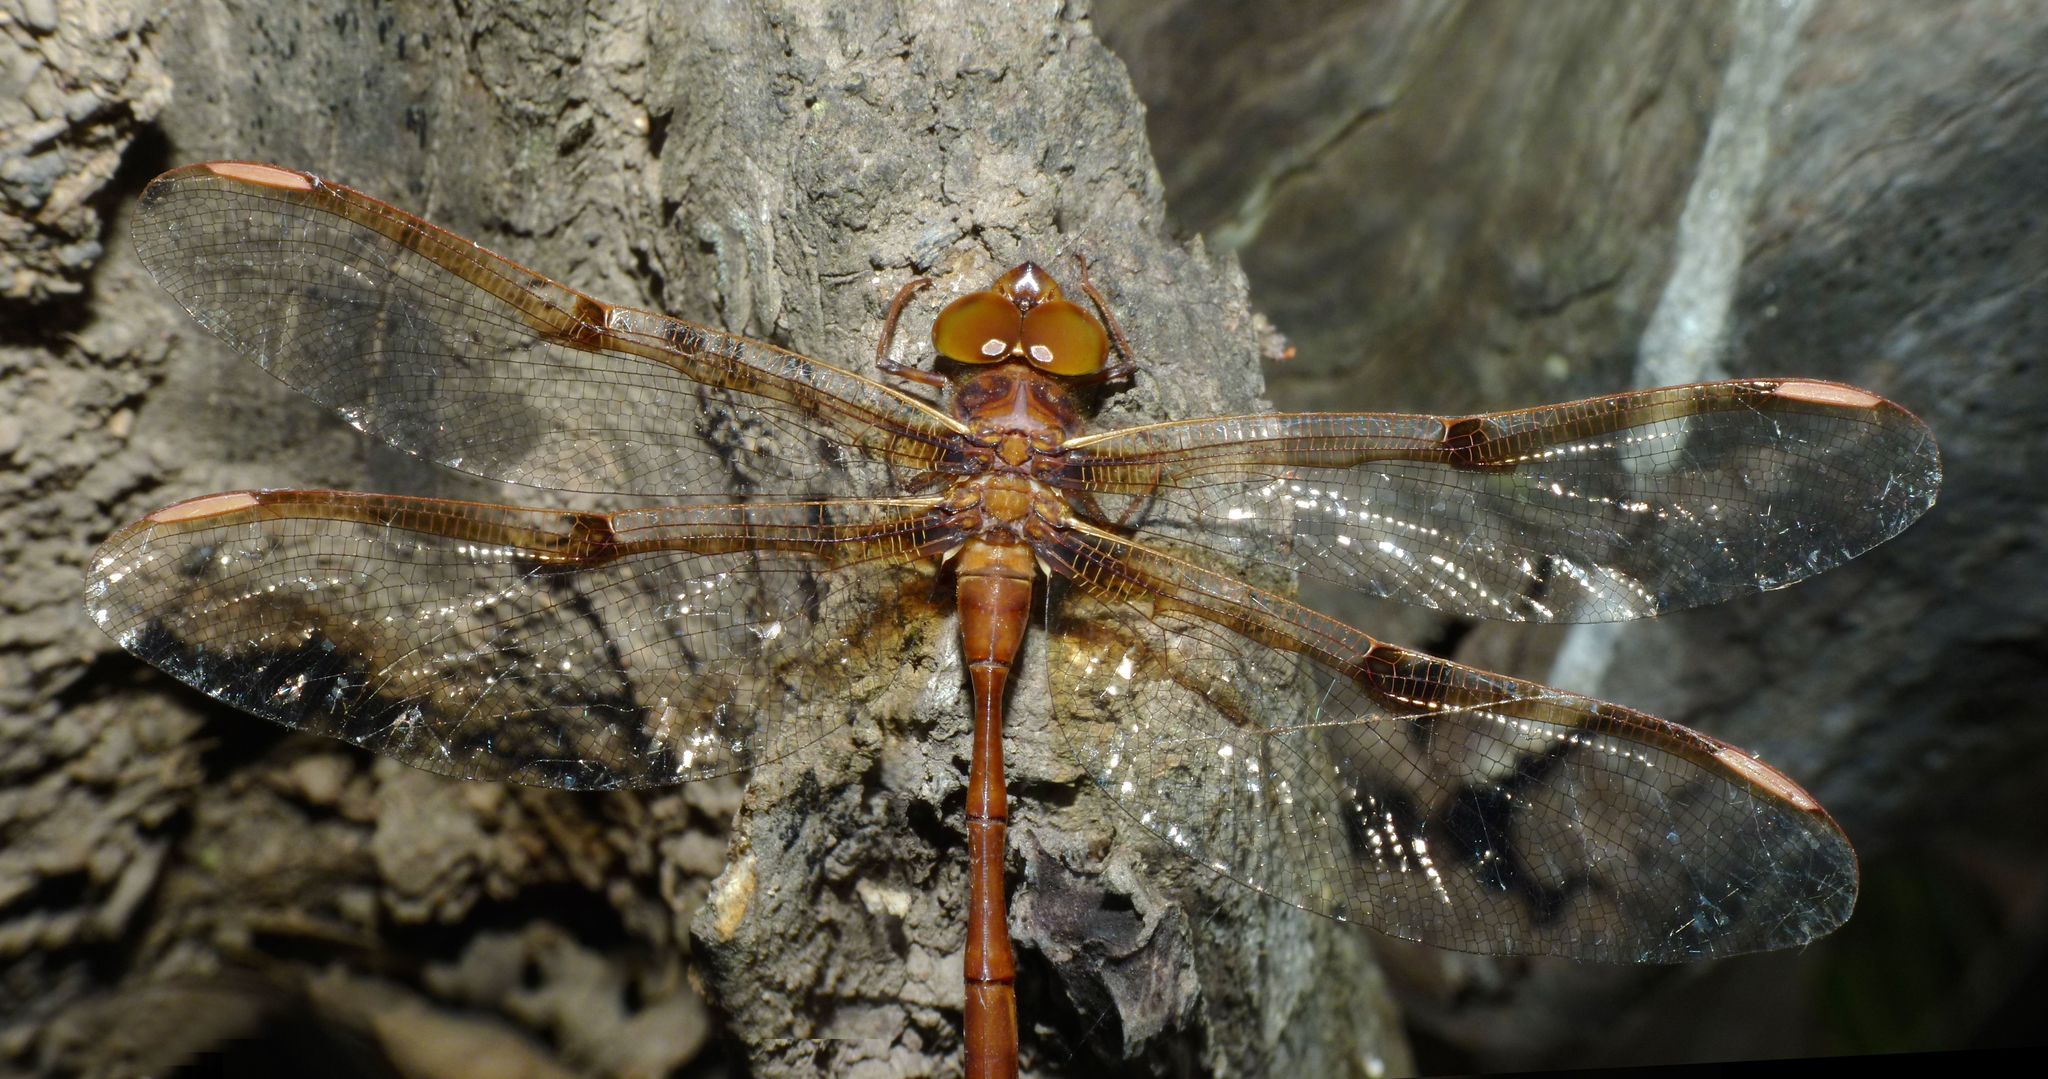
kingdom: Animalia
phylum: Arthropoda
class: Insecta
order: Odonata
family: Aeshnidae
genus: Telephlebia
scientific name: Telephlebia tryoni
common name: Coastal evening darner
